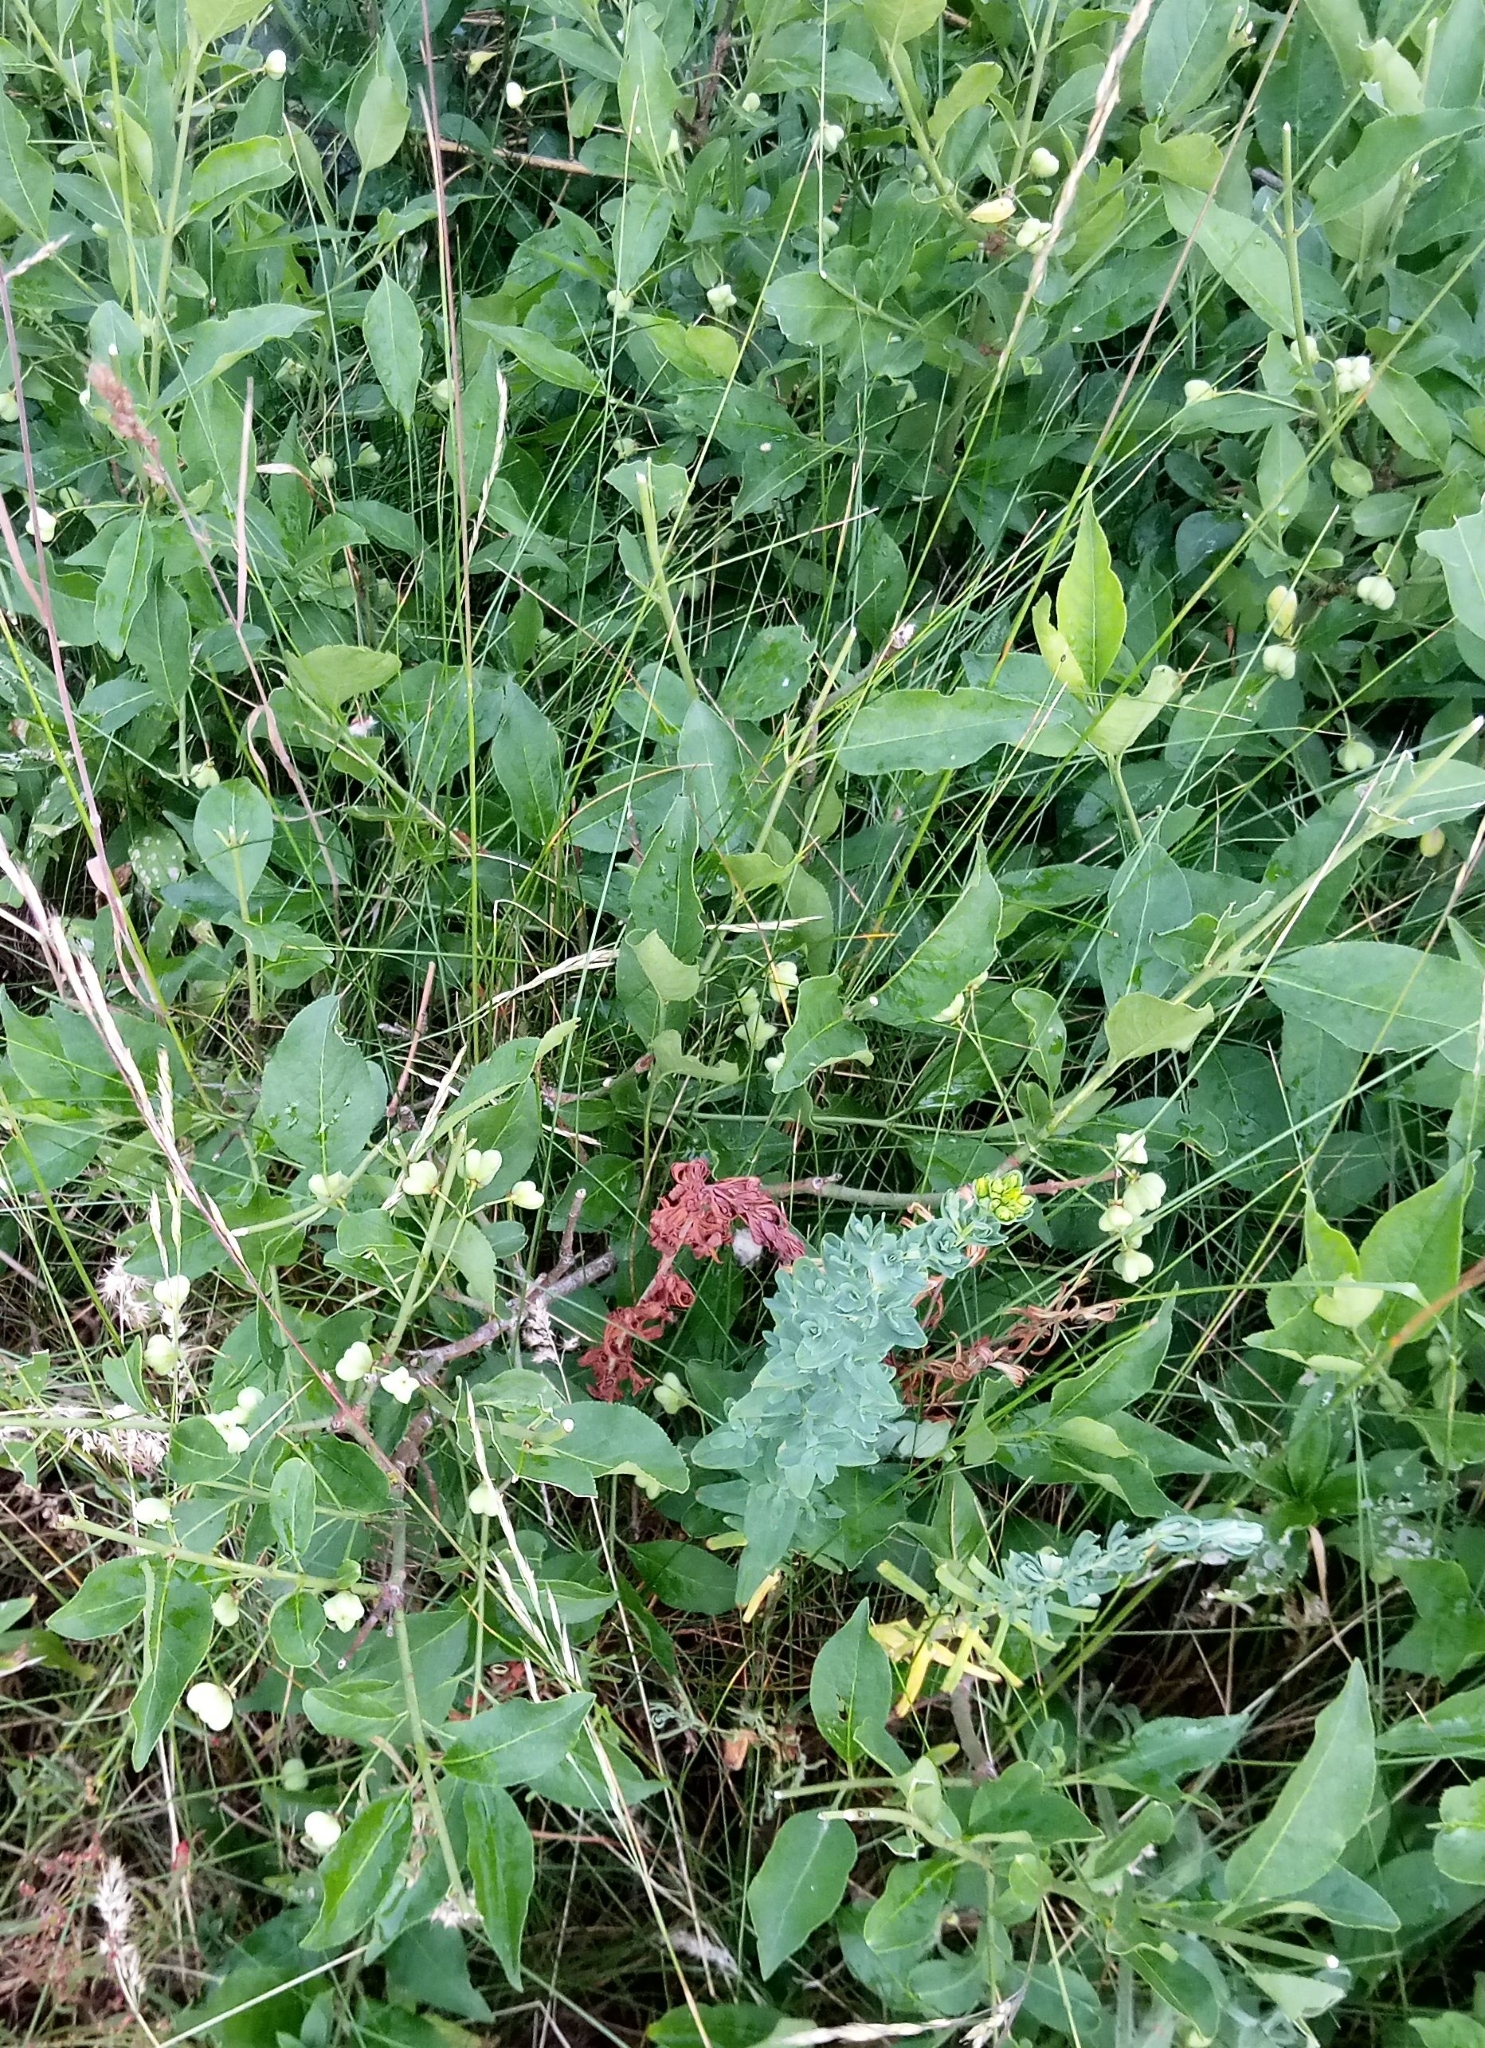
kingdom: Plantae
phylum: Tracheophyta
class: Magnoliopsida
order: Celastrales
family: Celastraceae
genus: Euonymus
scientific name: Euonymus europaeus
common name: Spindle
